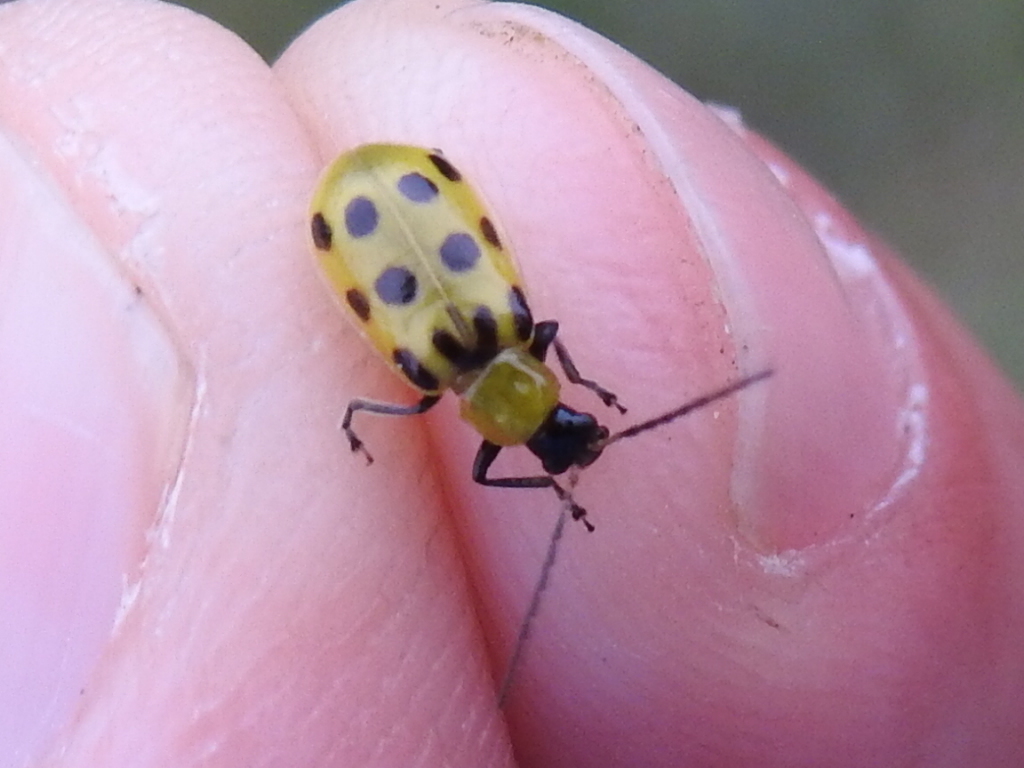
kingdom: Animalia
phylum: Arthropoda
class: Insecta
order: Coleoptera
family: Chrysomelidae
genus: Diabrotica
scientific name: Diabrotica undecimpunctata
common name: Spotted cucumber beetle
